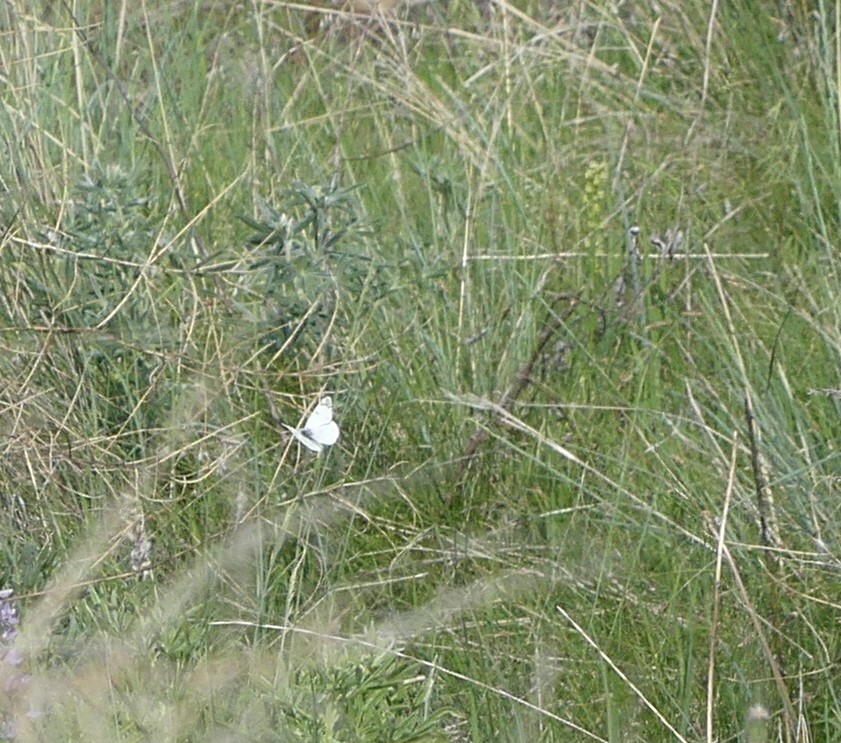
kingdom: Animalia
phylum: Arthropoda
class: Insecta
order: Lepidoptera
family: Pieridae
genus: Euchloe
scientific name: Euchloe ausonides
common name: Creamy marblewing
